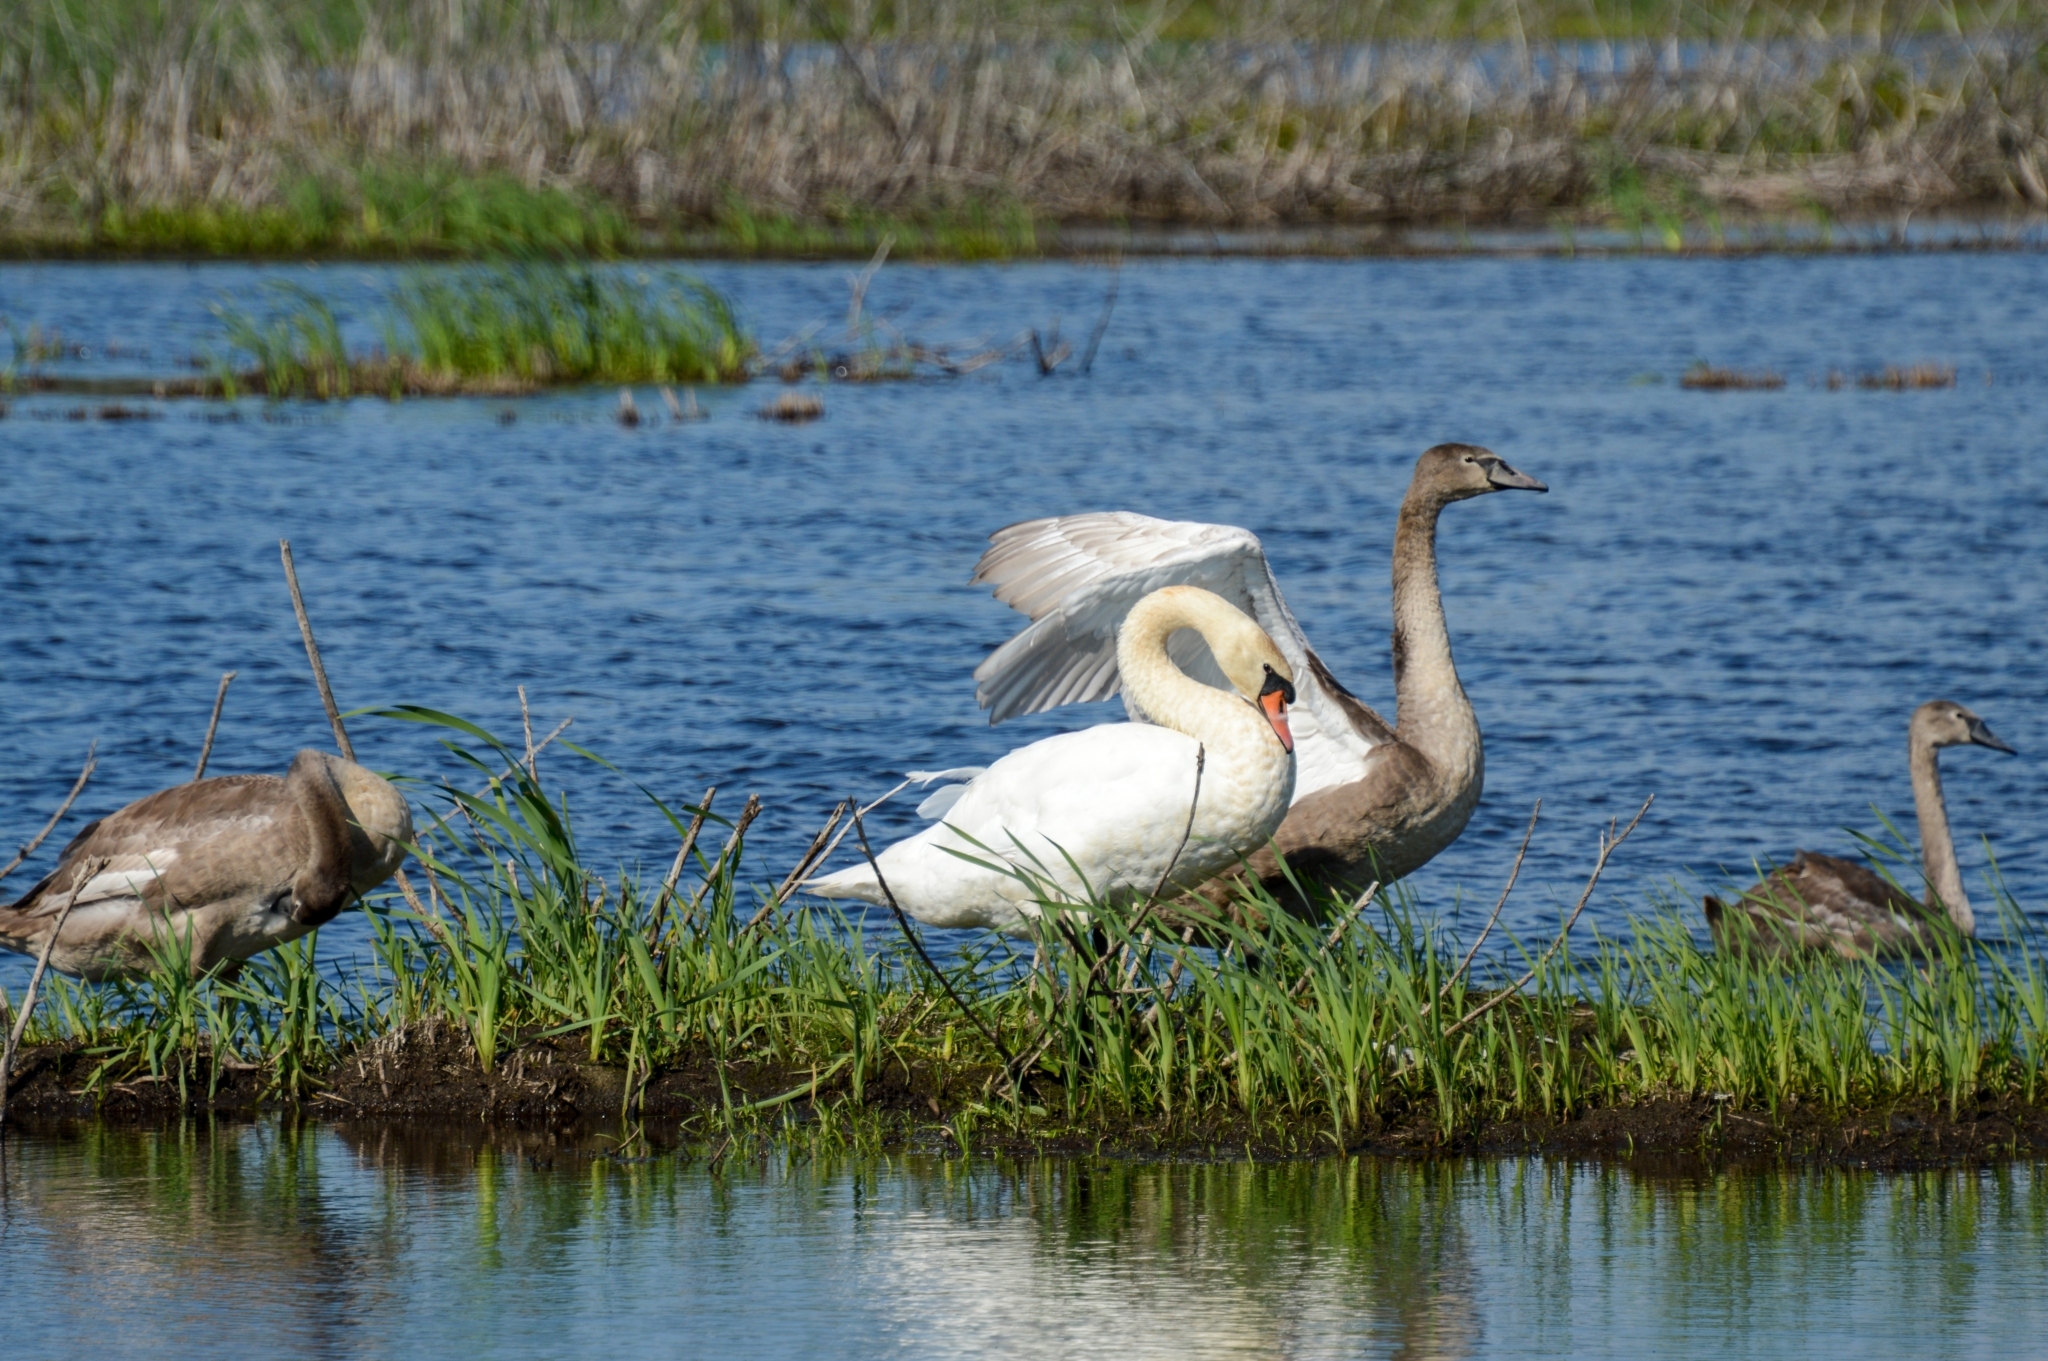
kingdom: Animalia
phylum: Chordata
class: Aves
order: Anseriformes
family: Anatidae
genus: Cygnus
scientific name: Cygnus olor
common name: Mute swan
